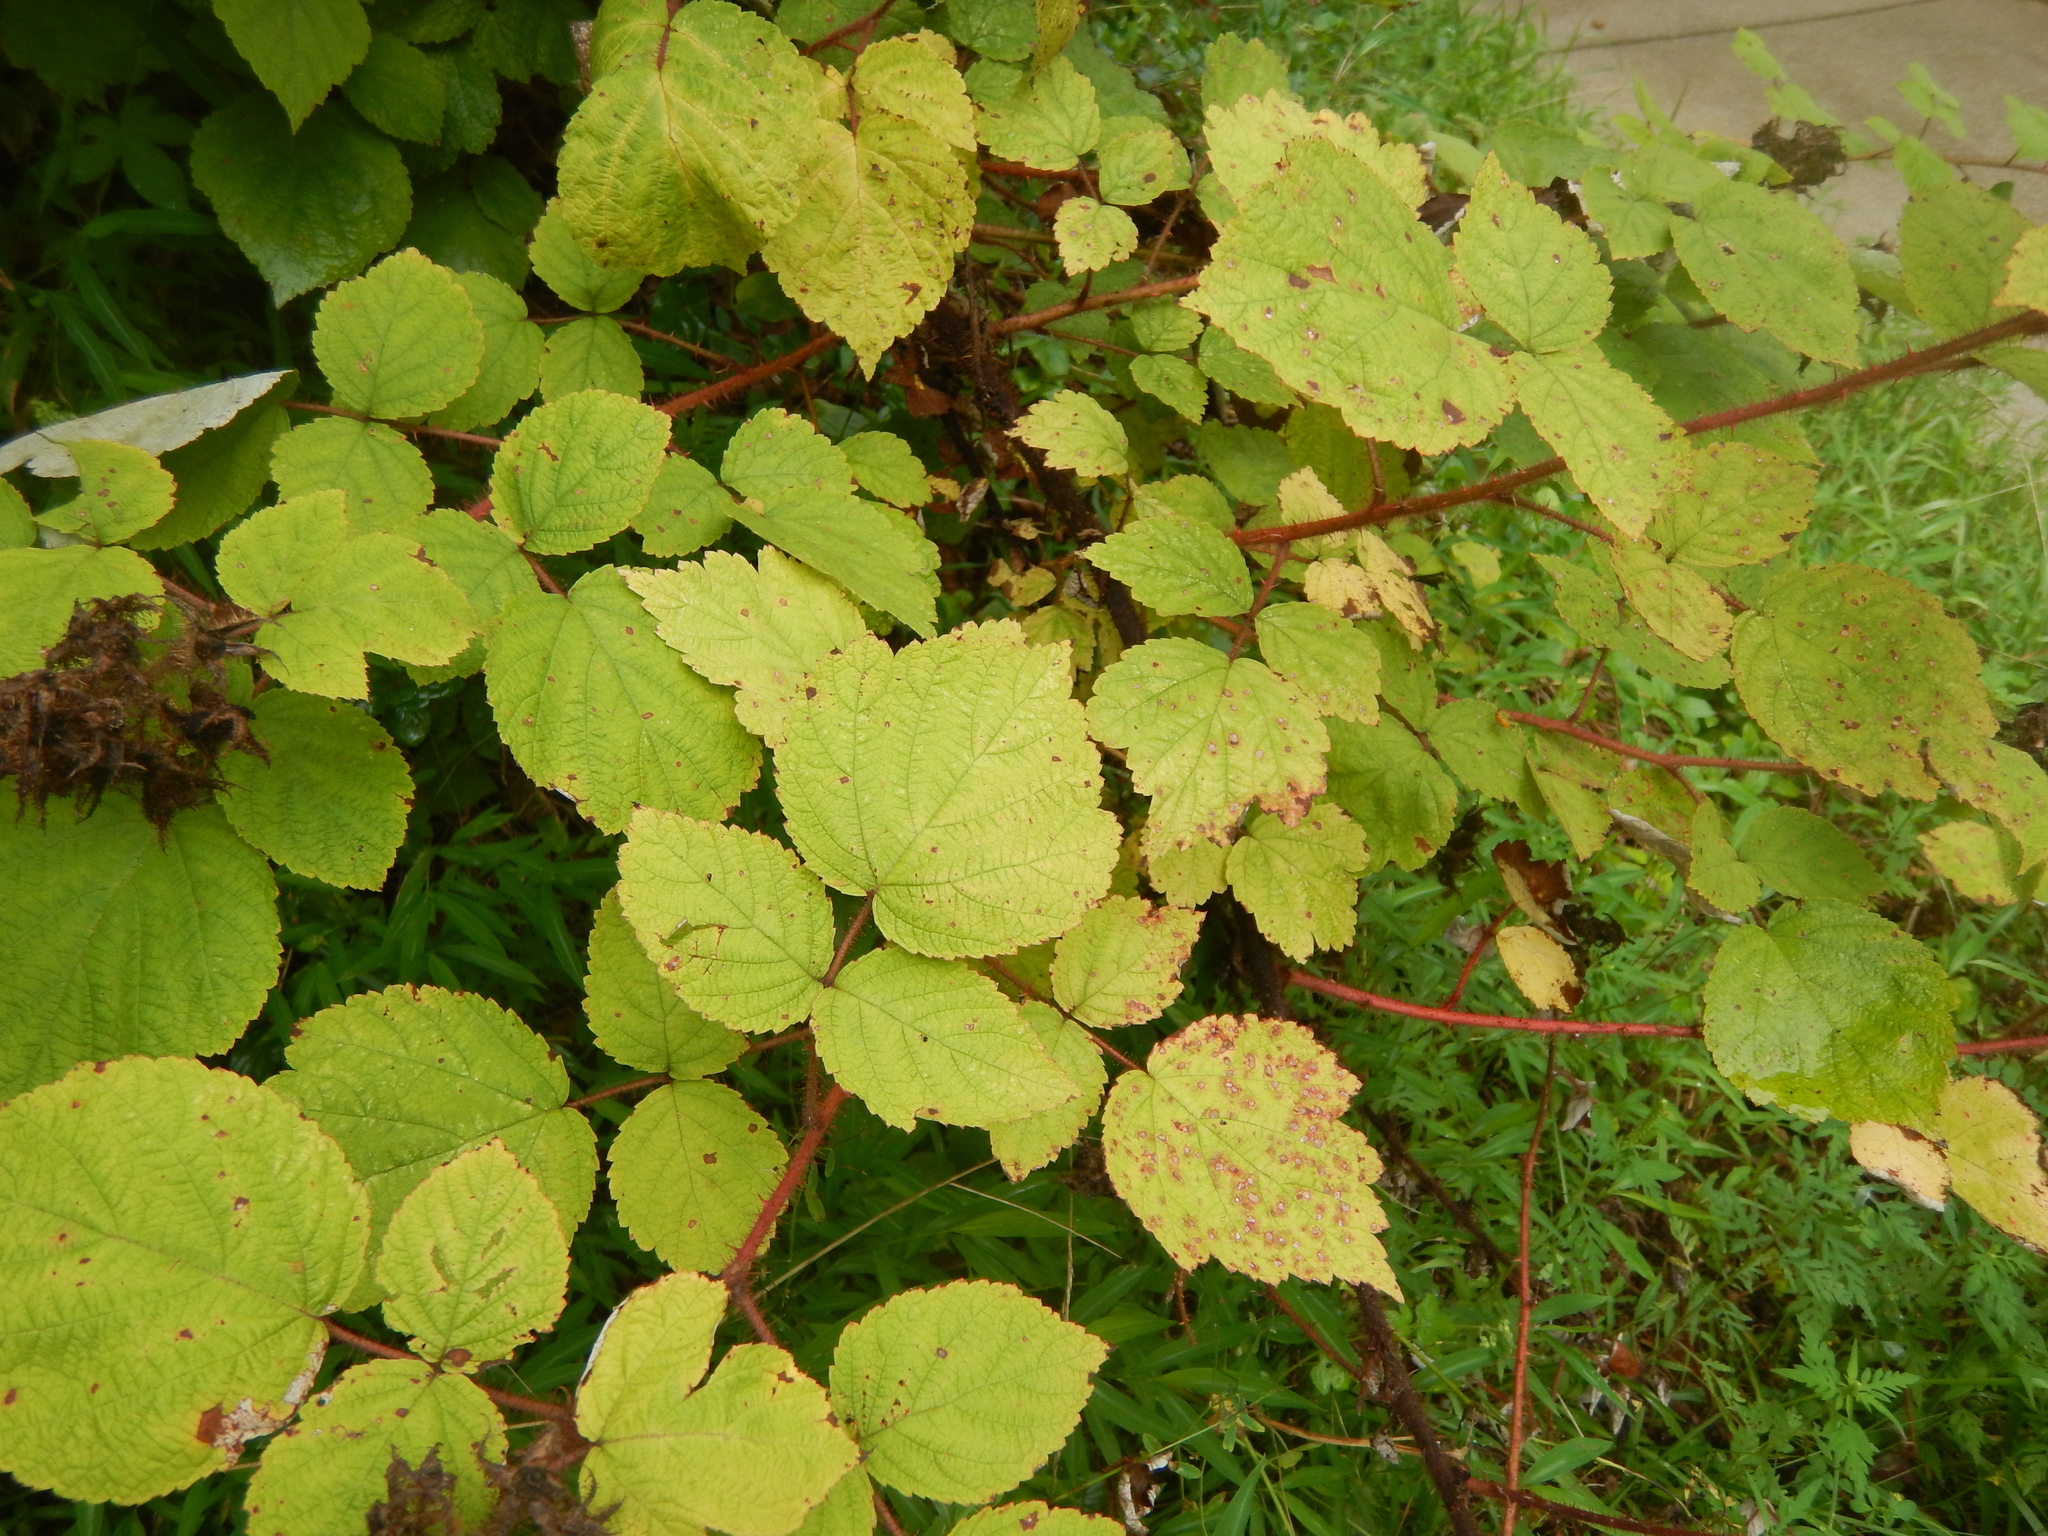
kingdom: Plantae
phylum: Tracheophyta
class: Magnoliopsida
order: Rosales
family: Rosaceae
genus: Rubus
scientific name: Rubus phoenicolasius
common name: Japanese wineberry
